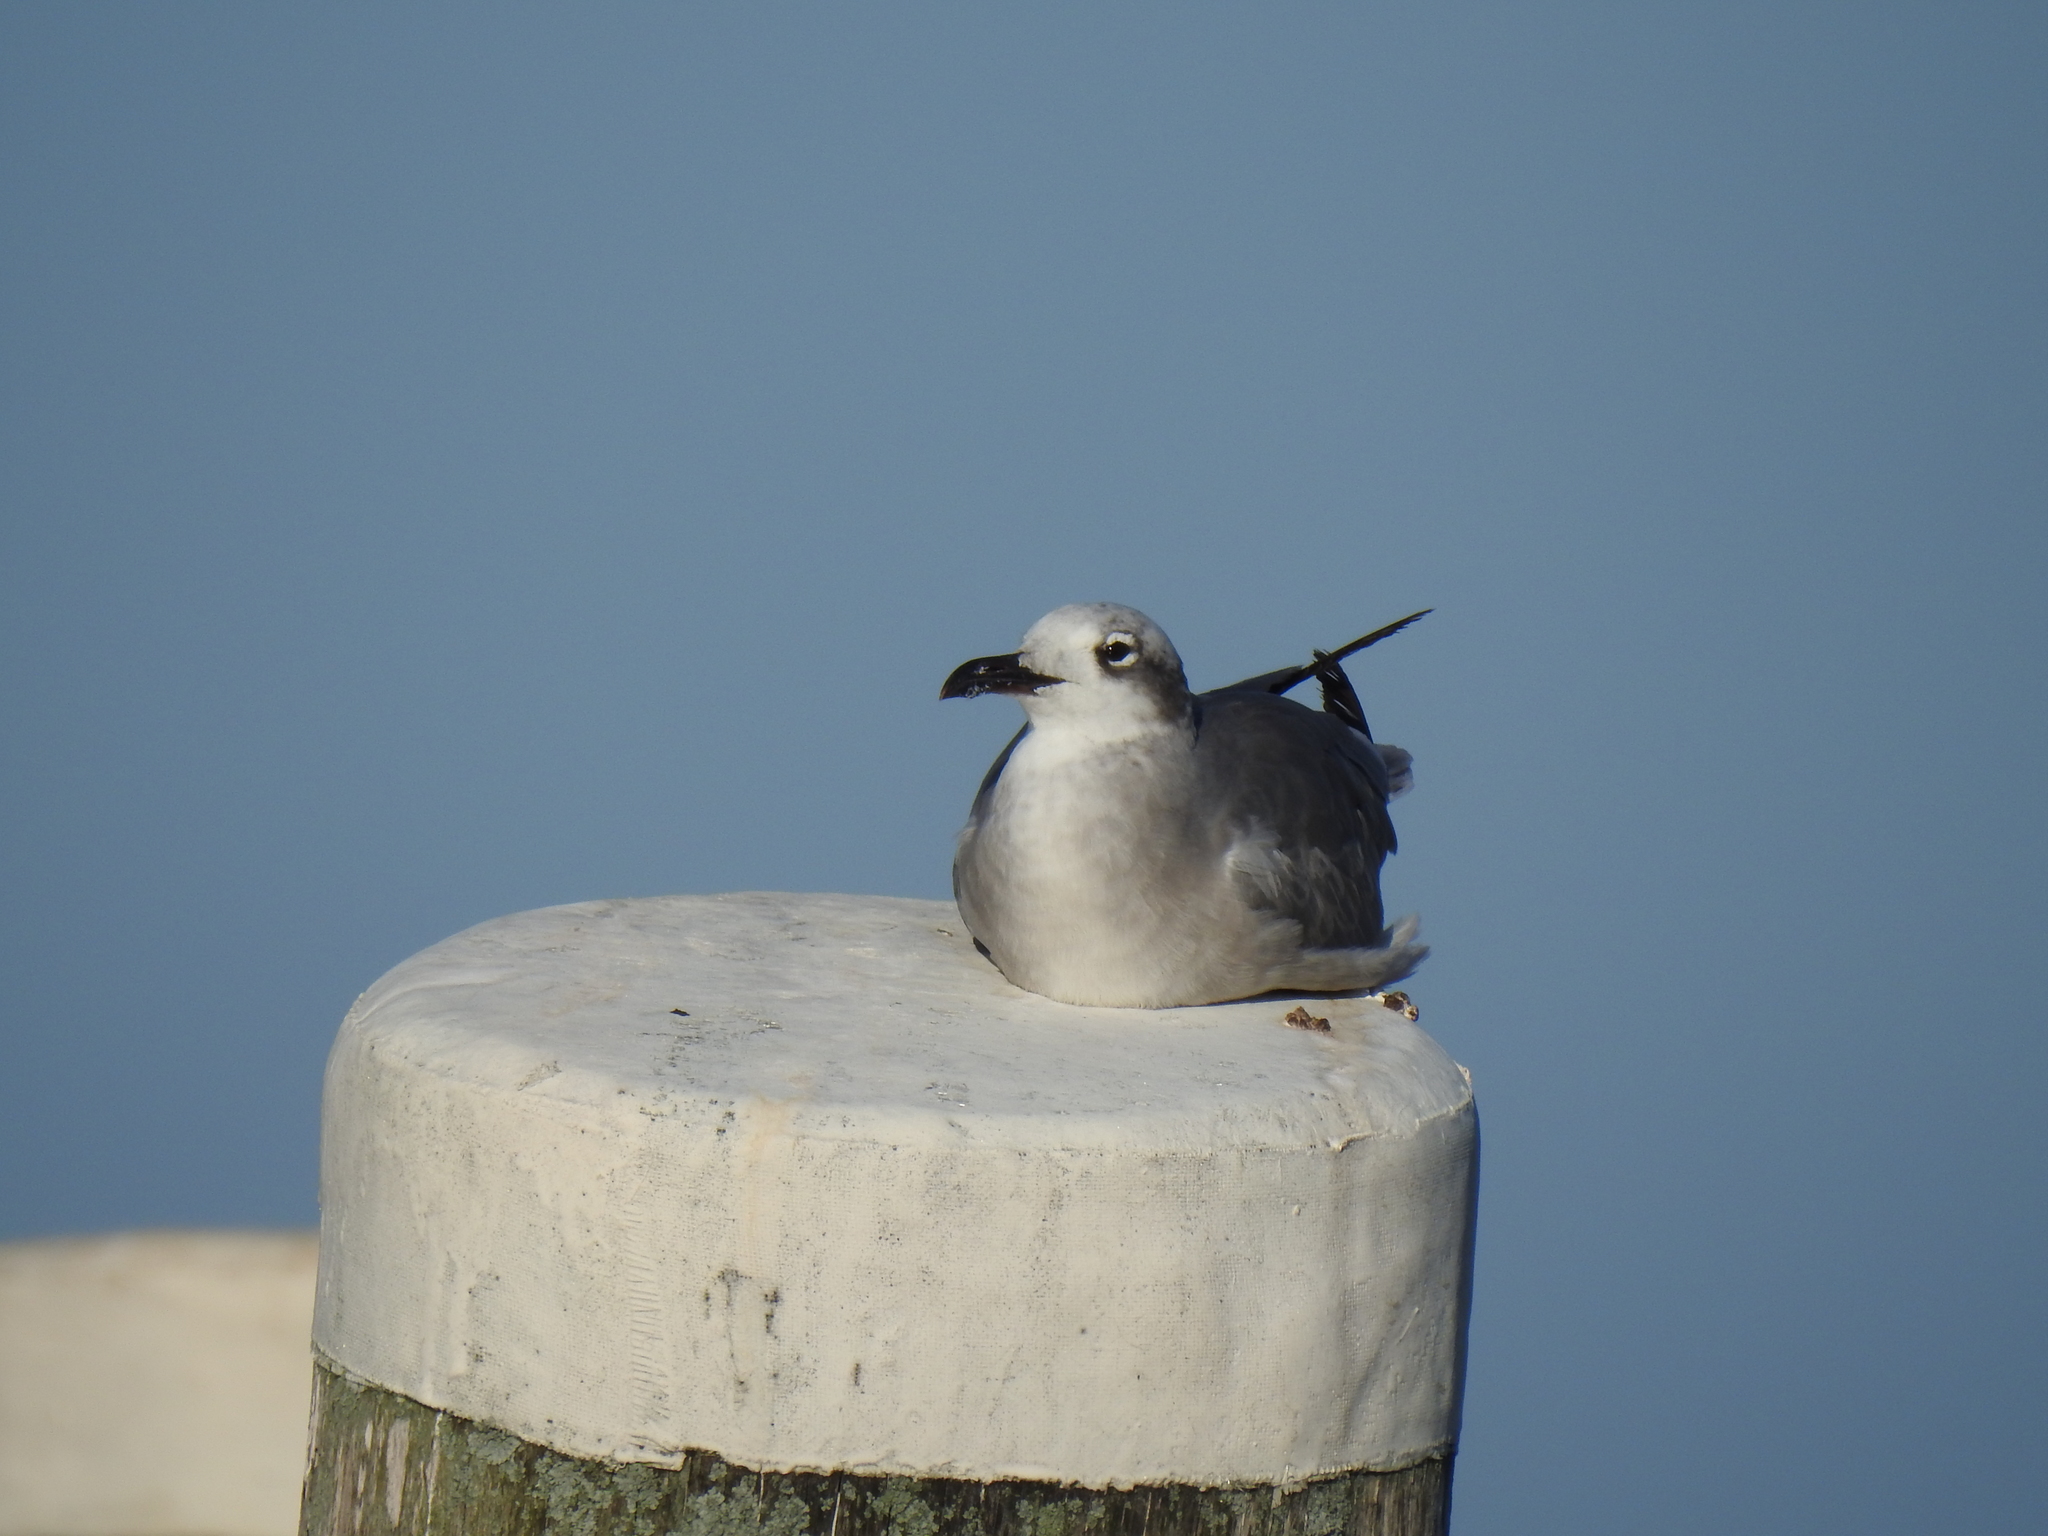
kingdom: Animalia
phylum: Chordata
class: Aves
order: Charadriiformes
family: Laridae
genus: Leucophaeus
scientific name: Leucophaeus atricilla
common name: Laughing gull
